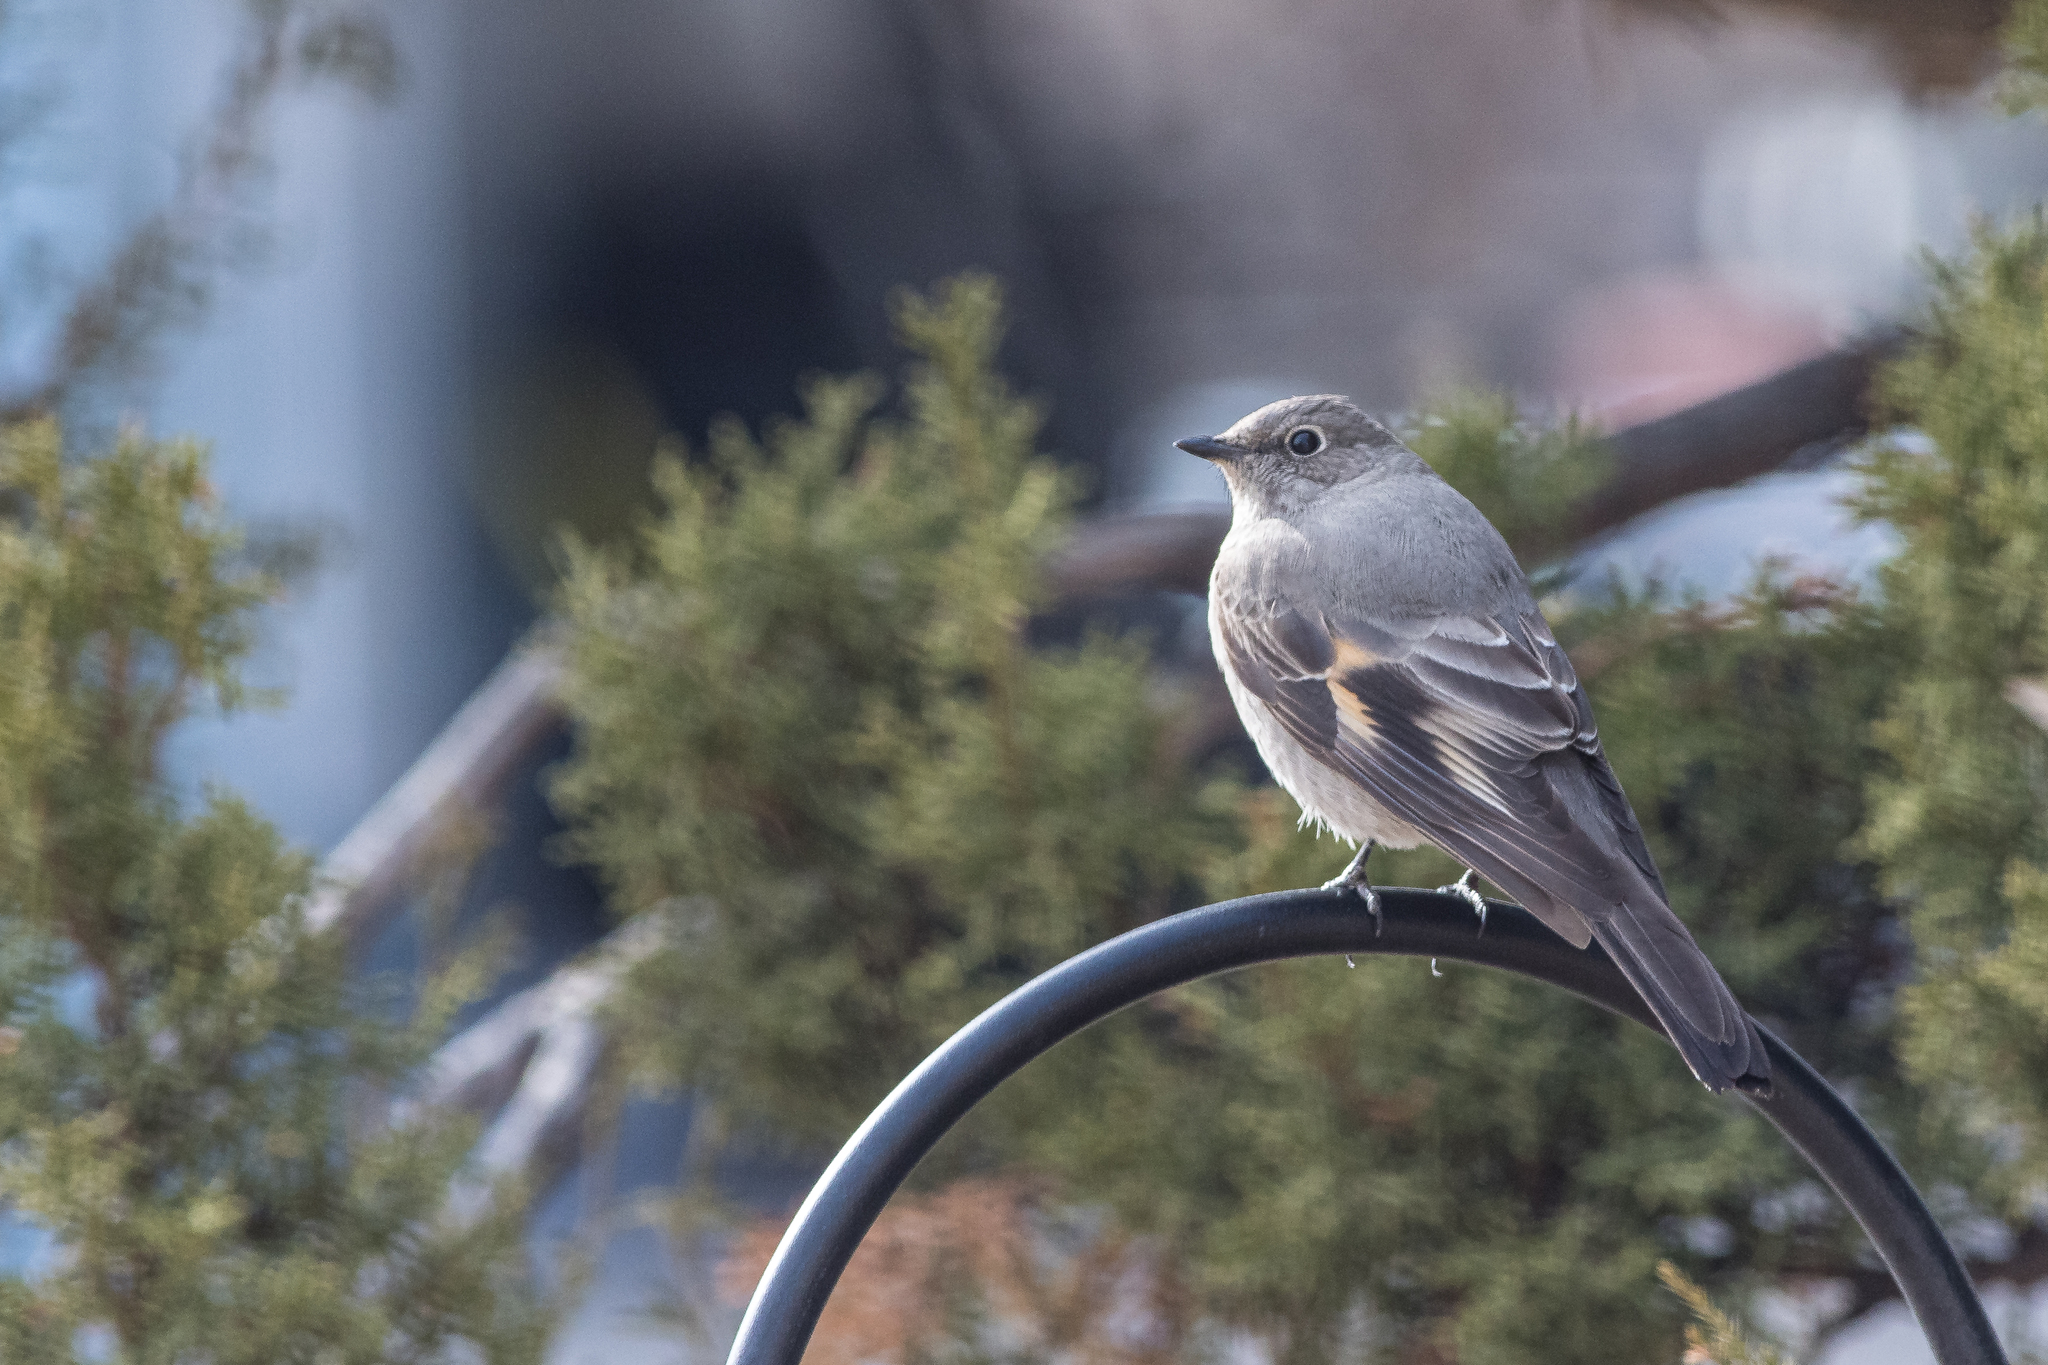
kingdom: Animalia
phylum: Chordata
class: Aves
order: Passeriformes
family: Turdidae
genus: Myadestes
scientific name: Myadestes townsendi
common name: Townsend's solitaire
